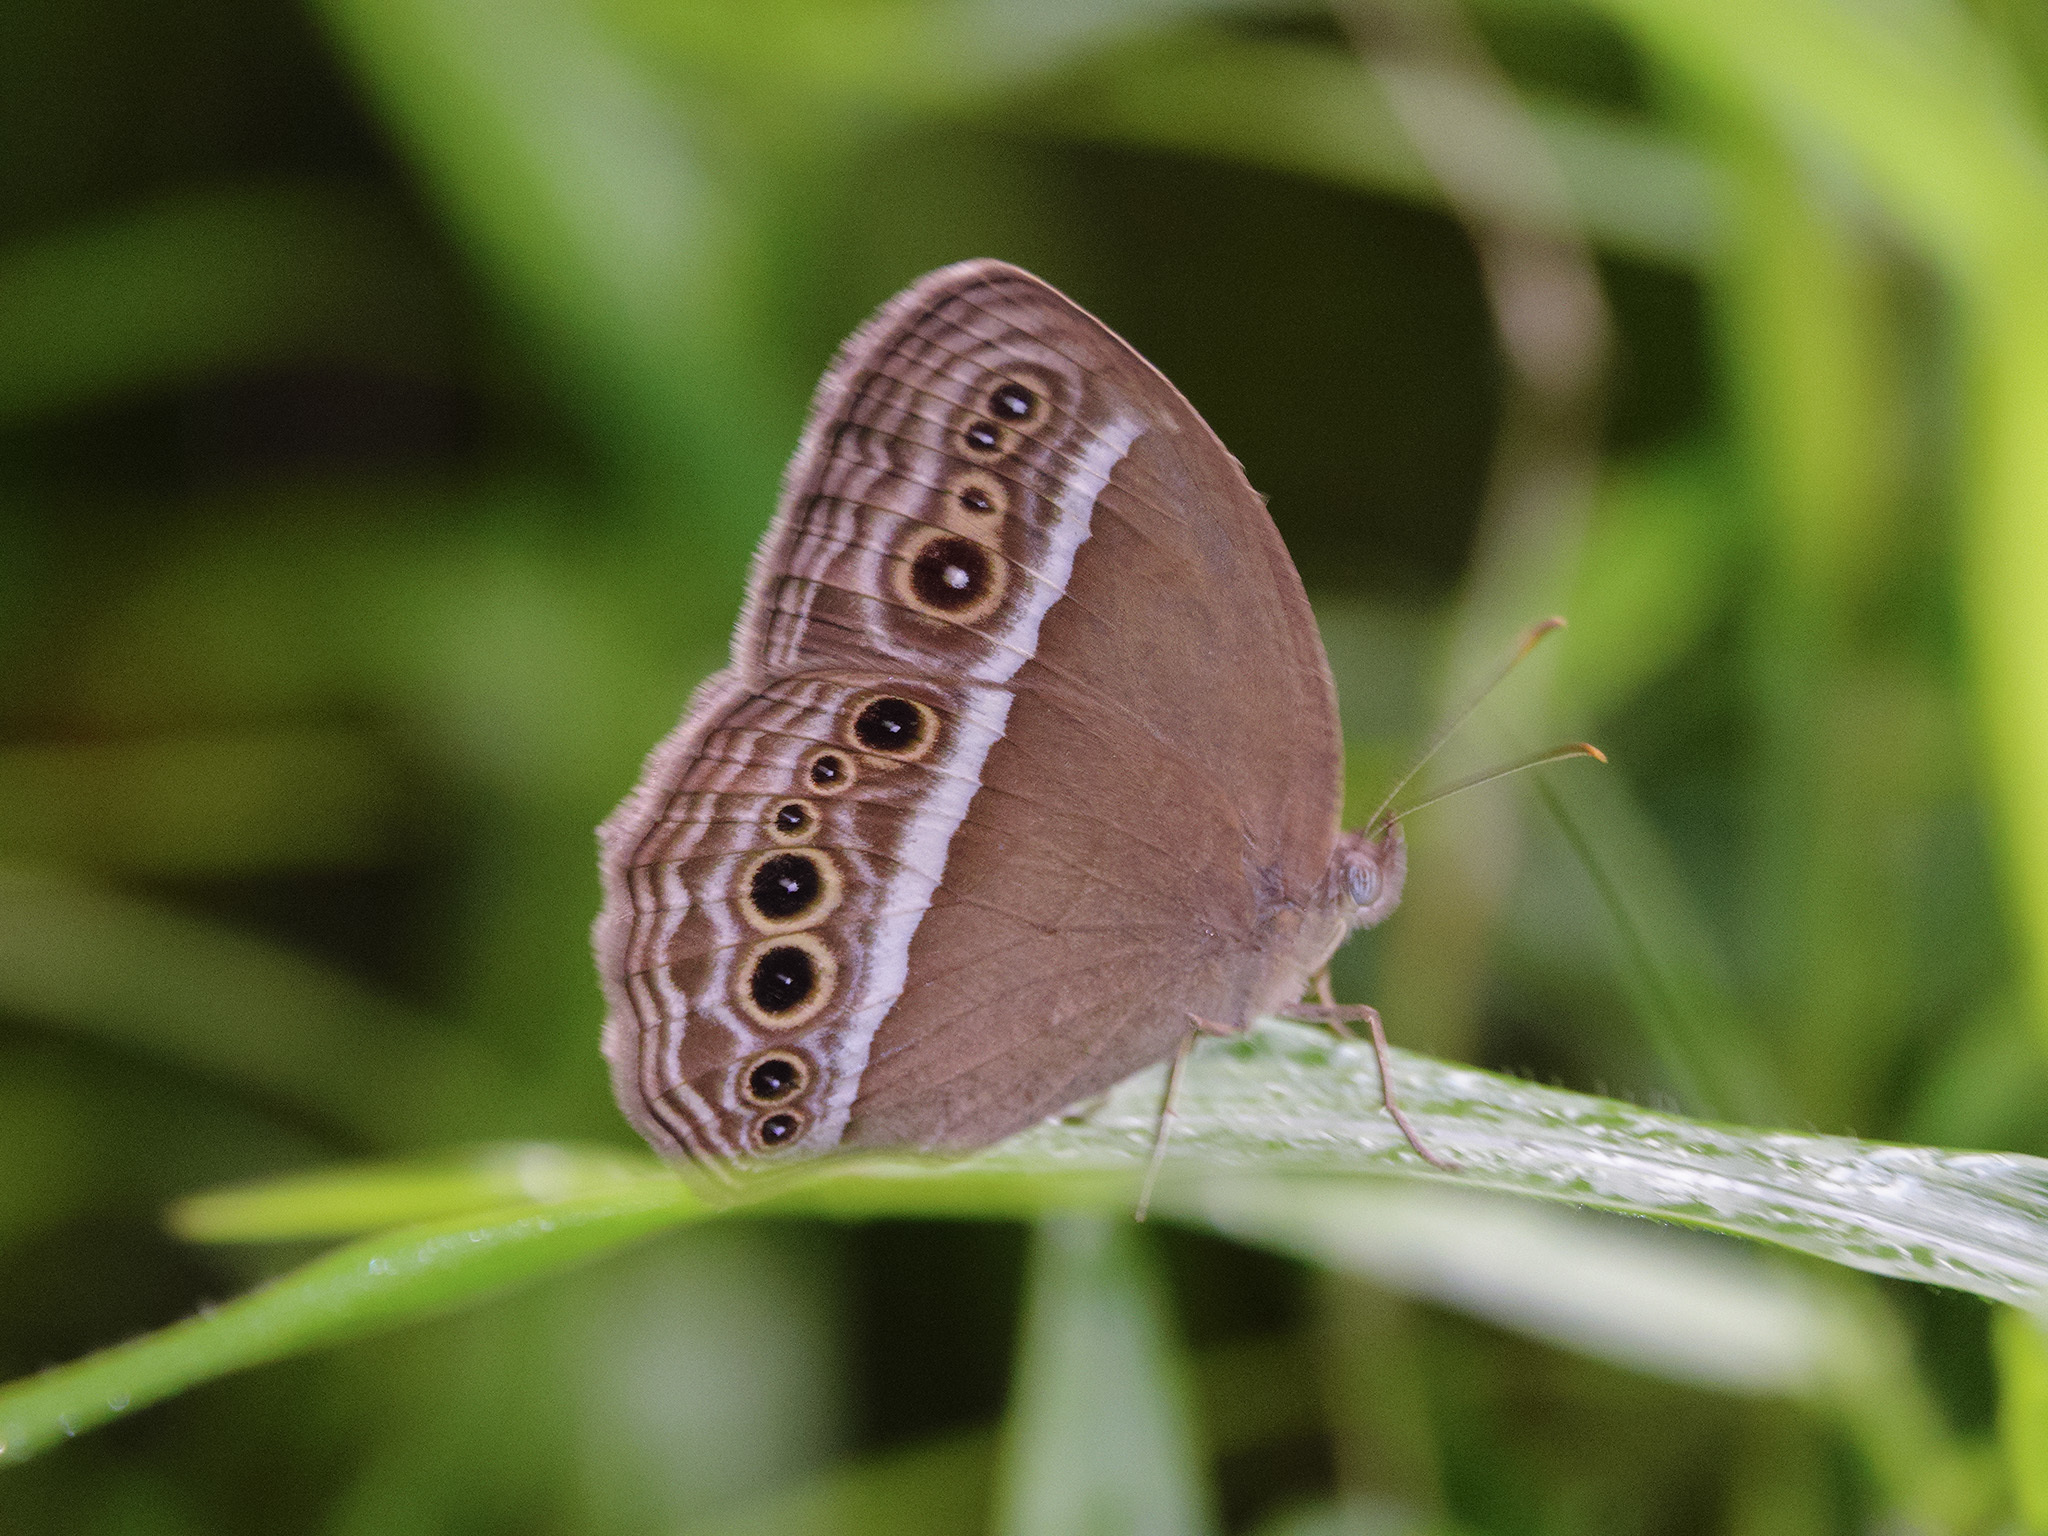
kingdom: Animalia
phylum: Arthropoda
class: Insecta
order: Lepidoptera
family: Nymphalidae
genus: Mycalesis
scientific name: Mycalesis mineus
